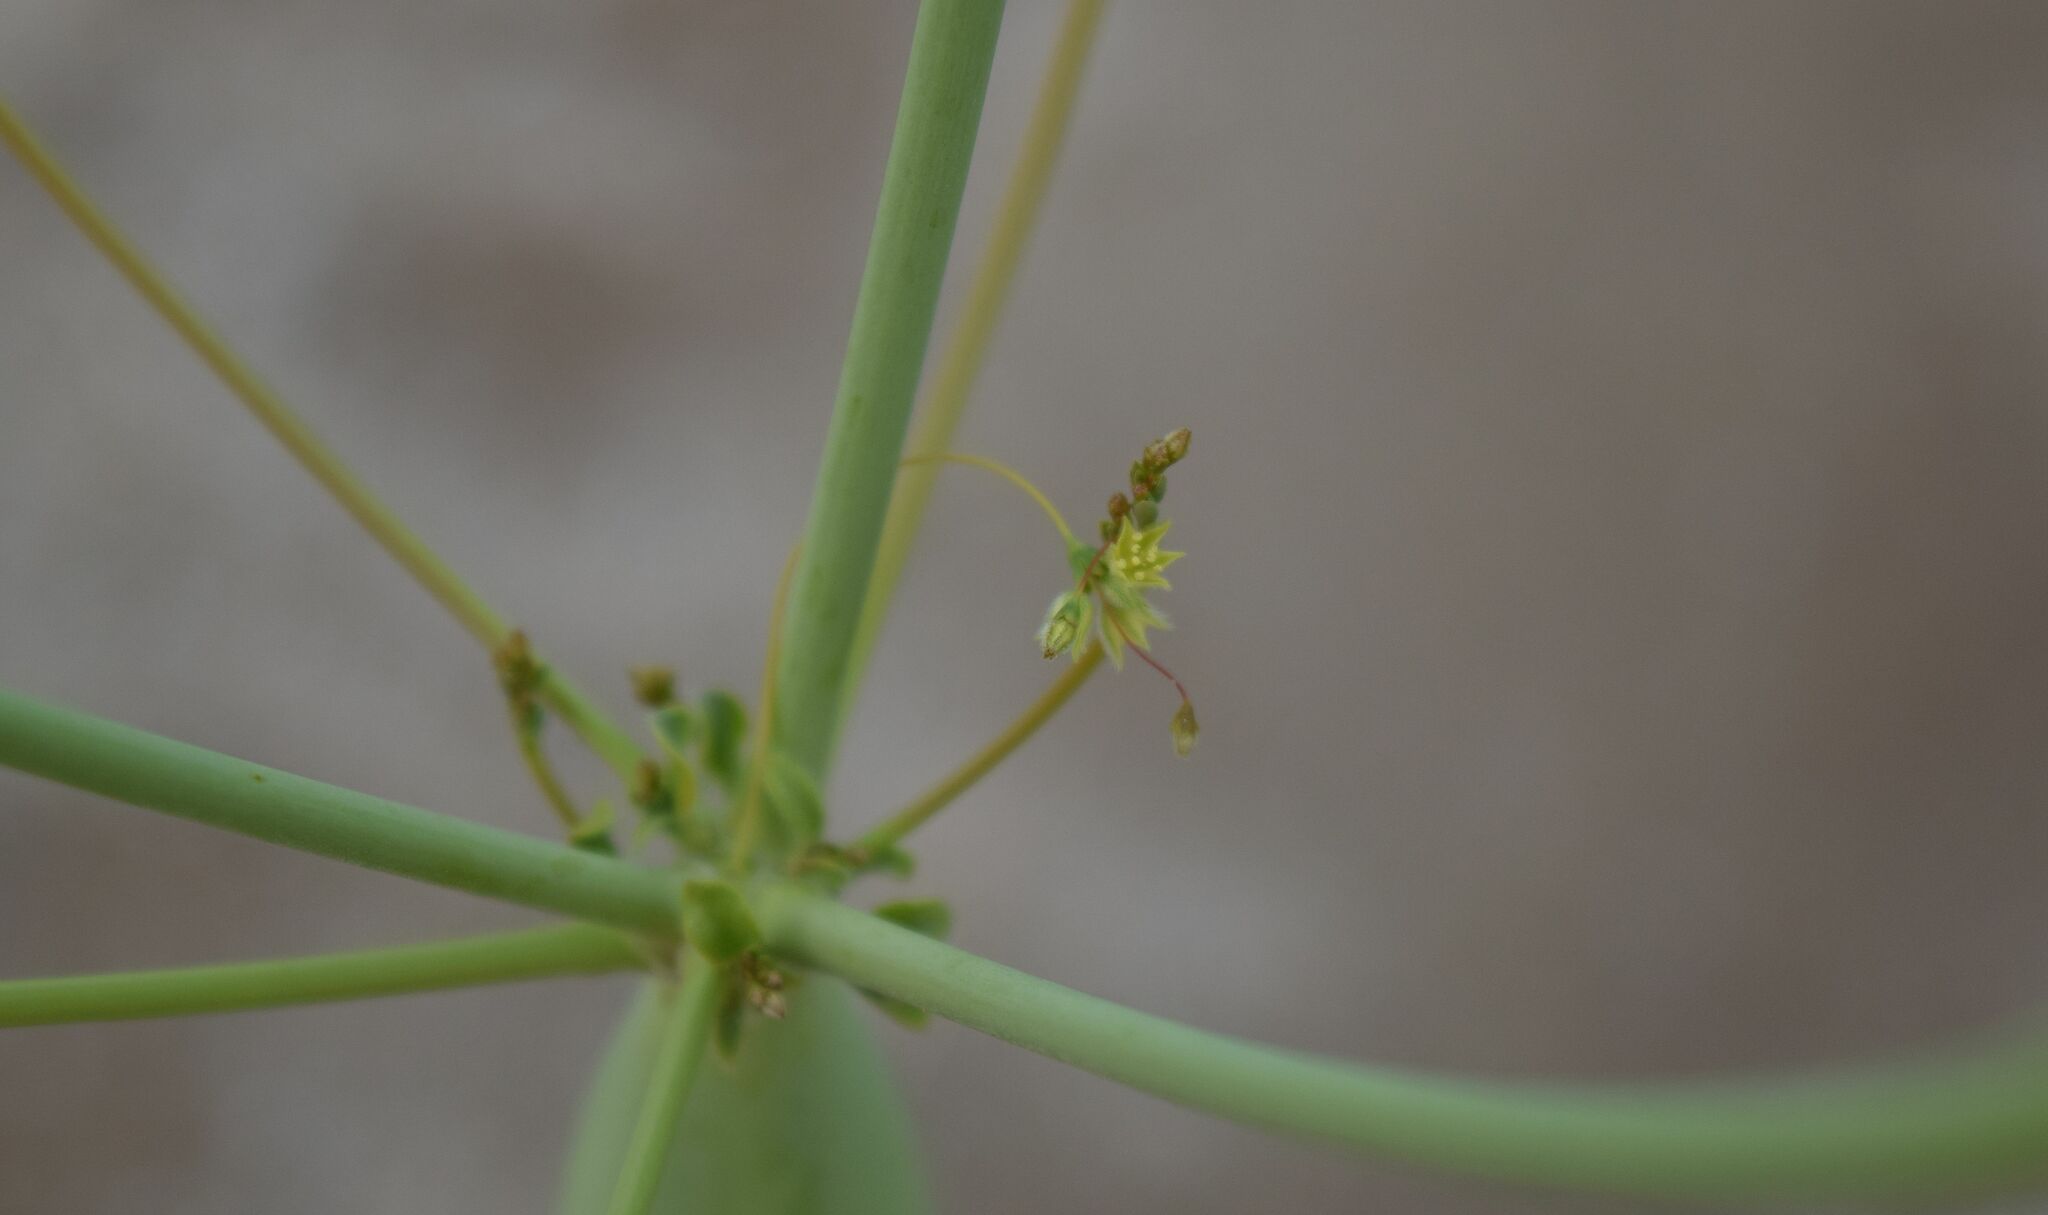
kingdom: Plantae
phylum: Tracheophyta
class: Magnoliopsida
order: Caryophyllales
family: Polygonaceae
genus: Eriogonum
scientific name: Eriogonum trichopes
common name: Little desert trumpet
